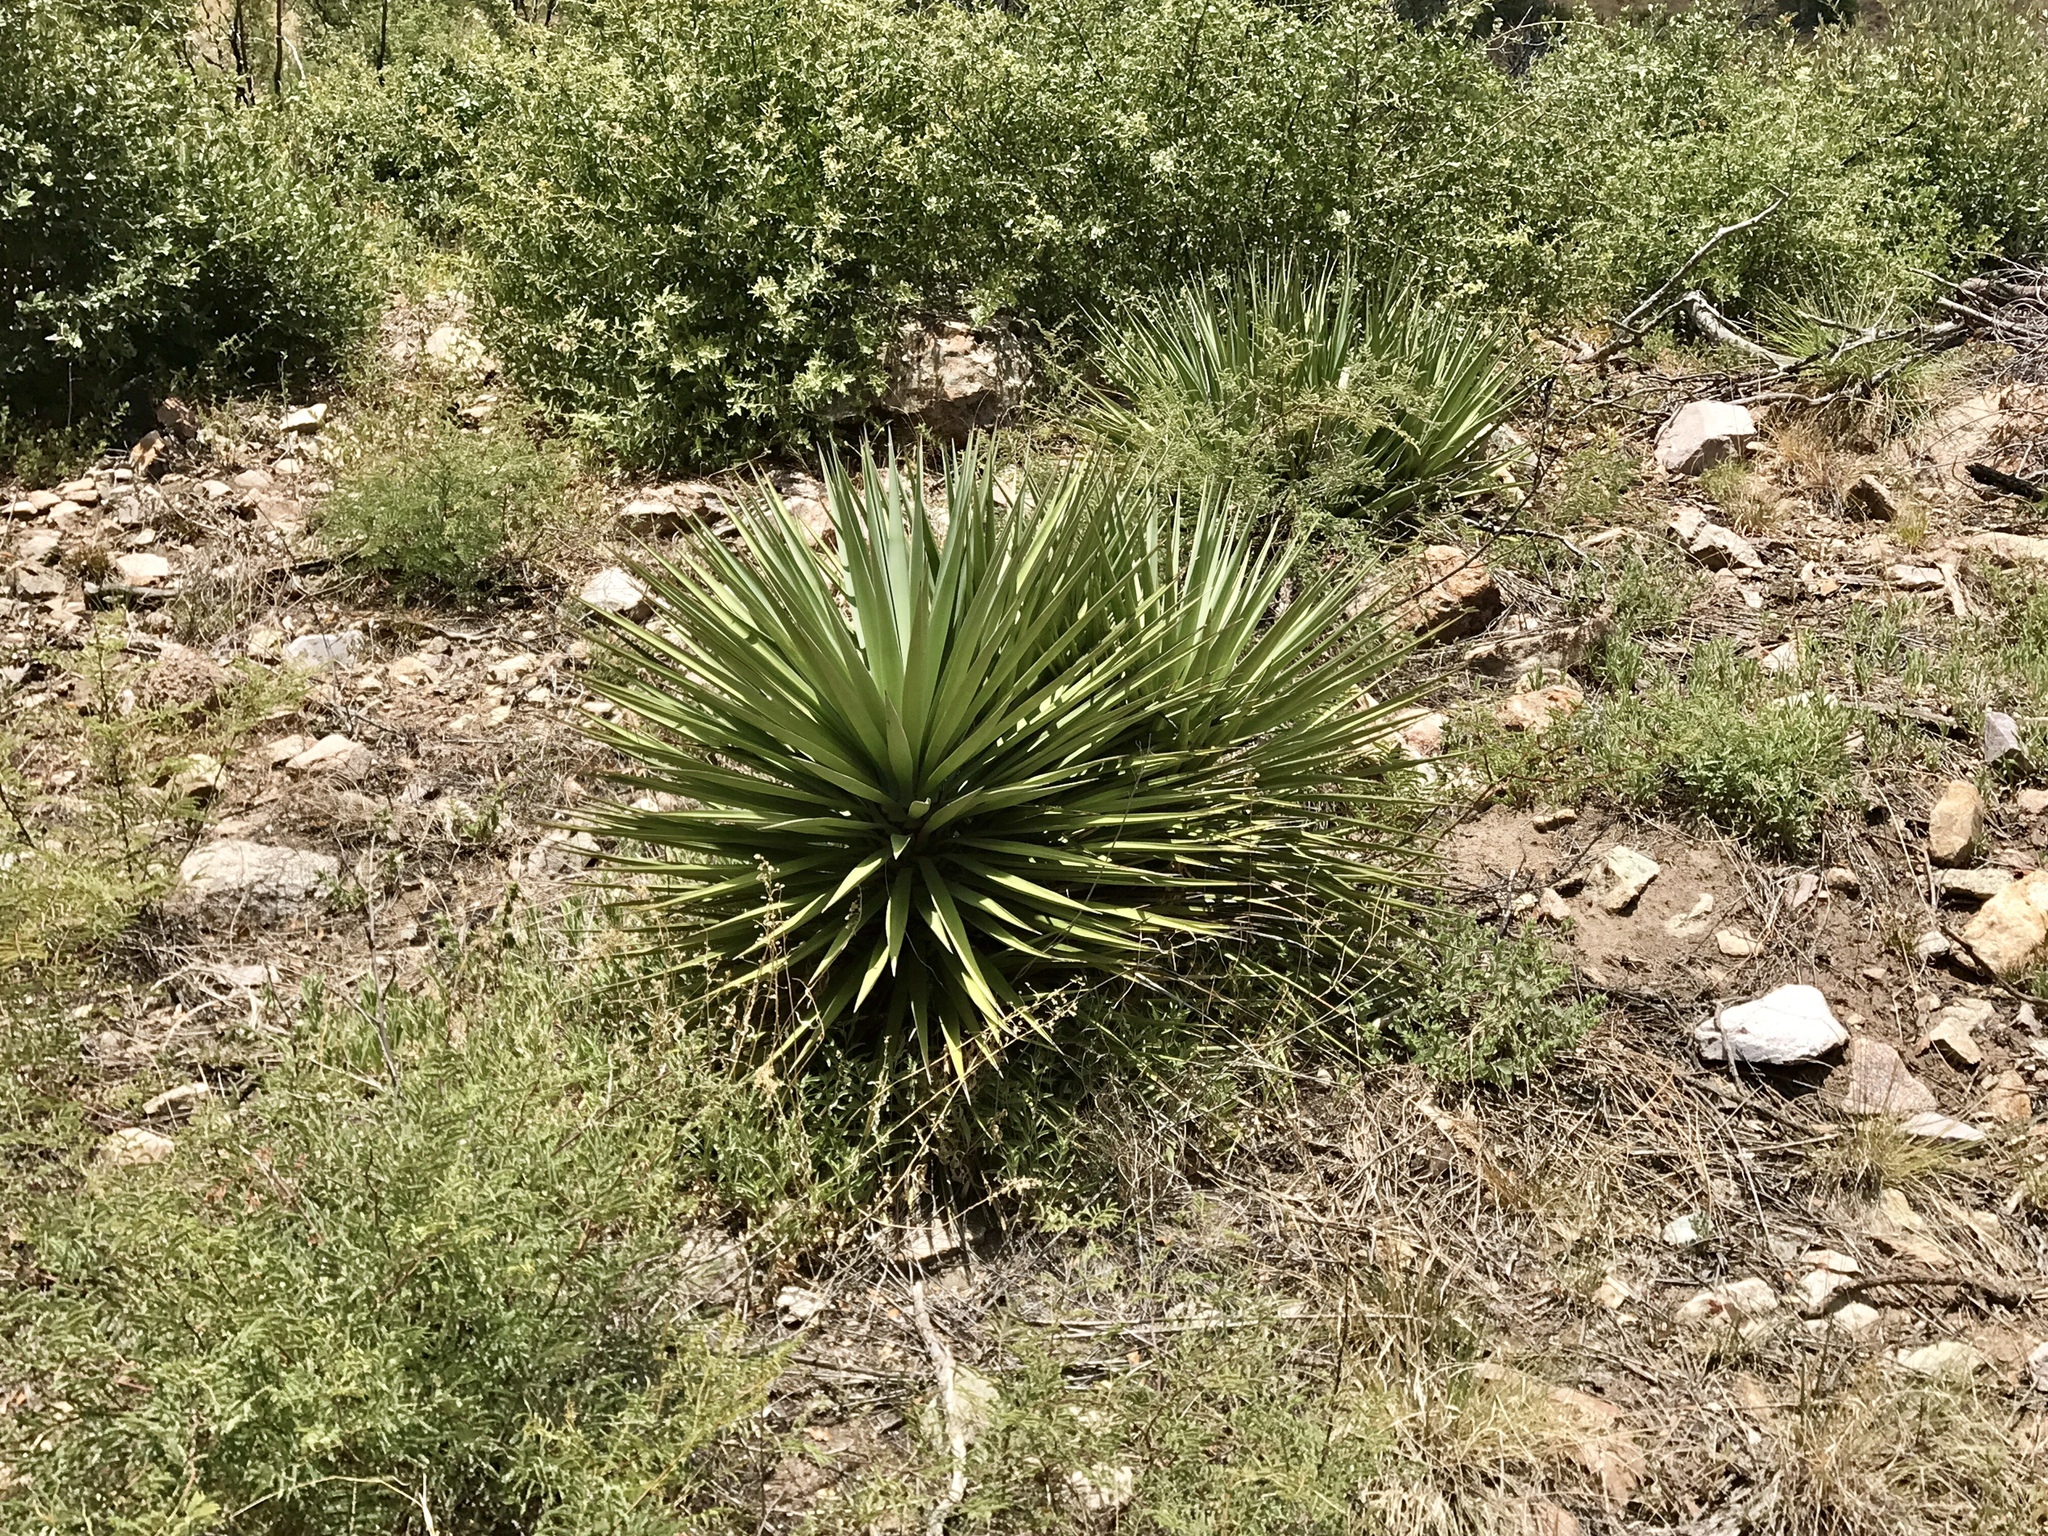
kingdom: Plantae
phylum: Tracheophyta
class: Liliopsida
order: Asparagales
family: Asparagaceae
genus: Yucca
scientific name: Yucca schottii
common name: Hoary yucca
